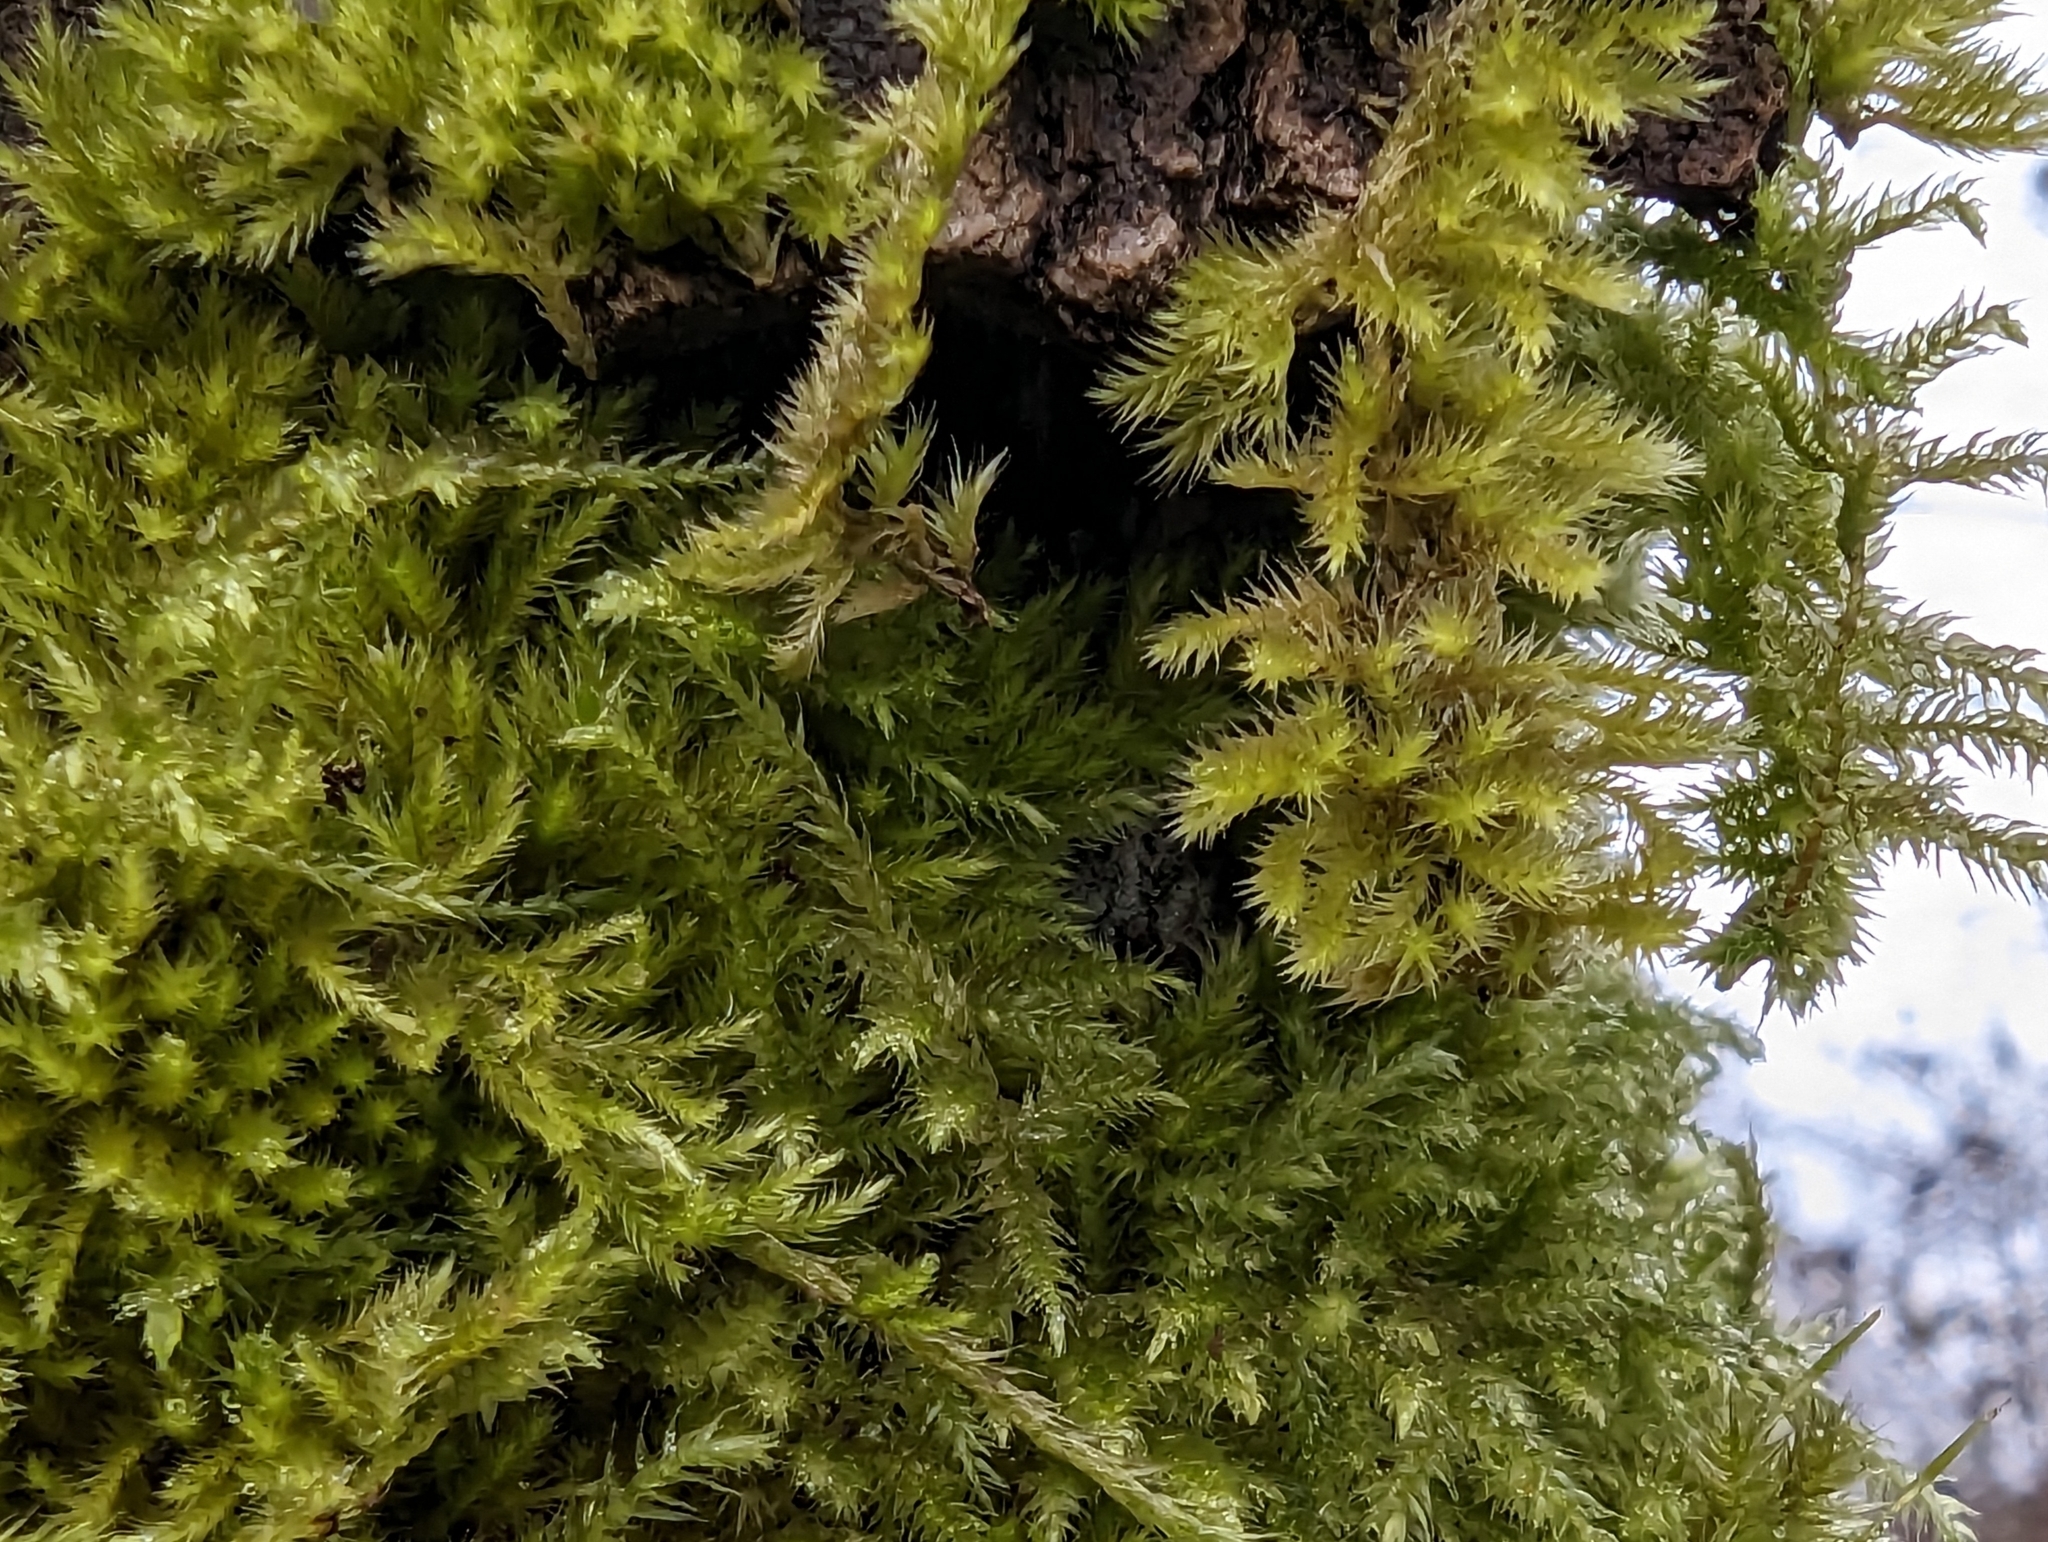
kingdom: Plantae
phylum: Bryophyta
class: Bryopsida
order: Hypnales
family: Brachytheciaceae
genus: Homalothecium
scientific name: Homalothecium fulgescens
